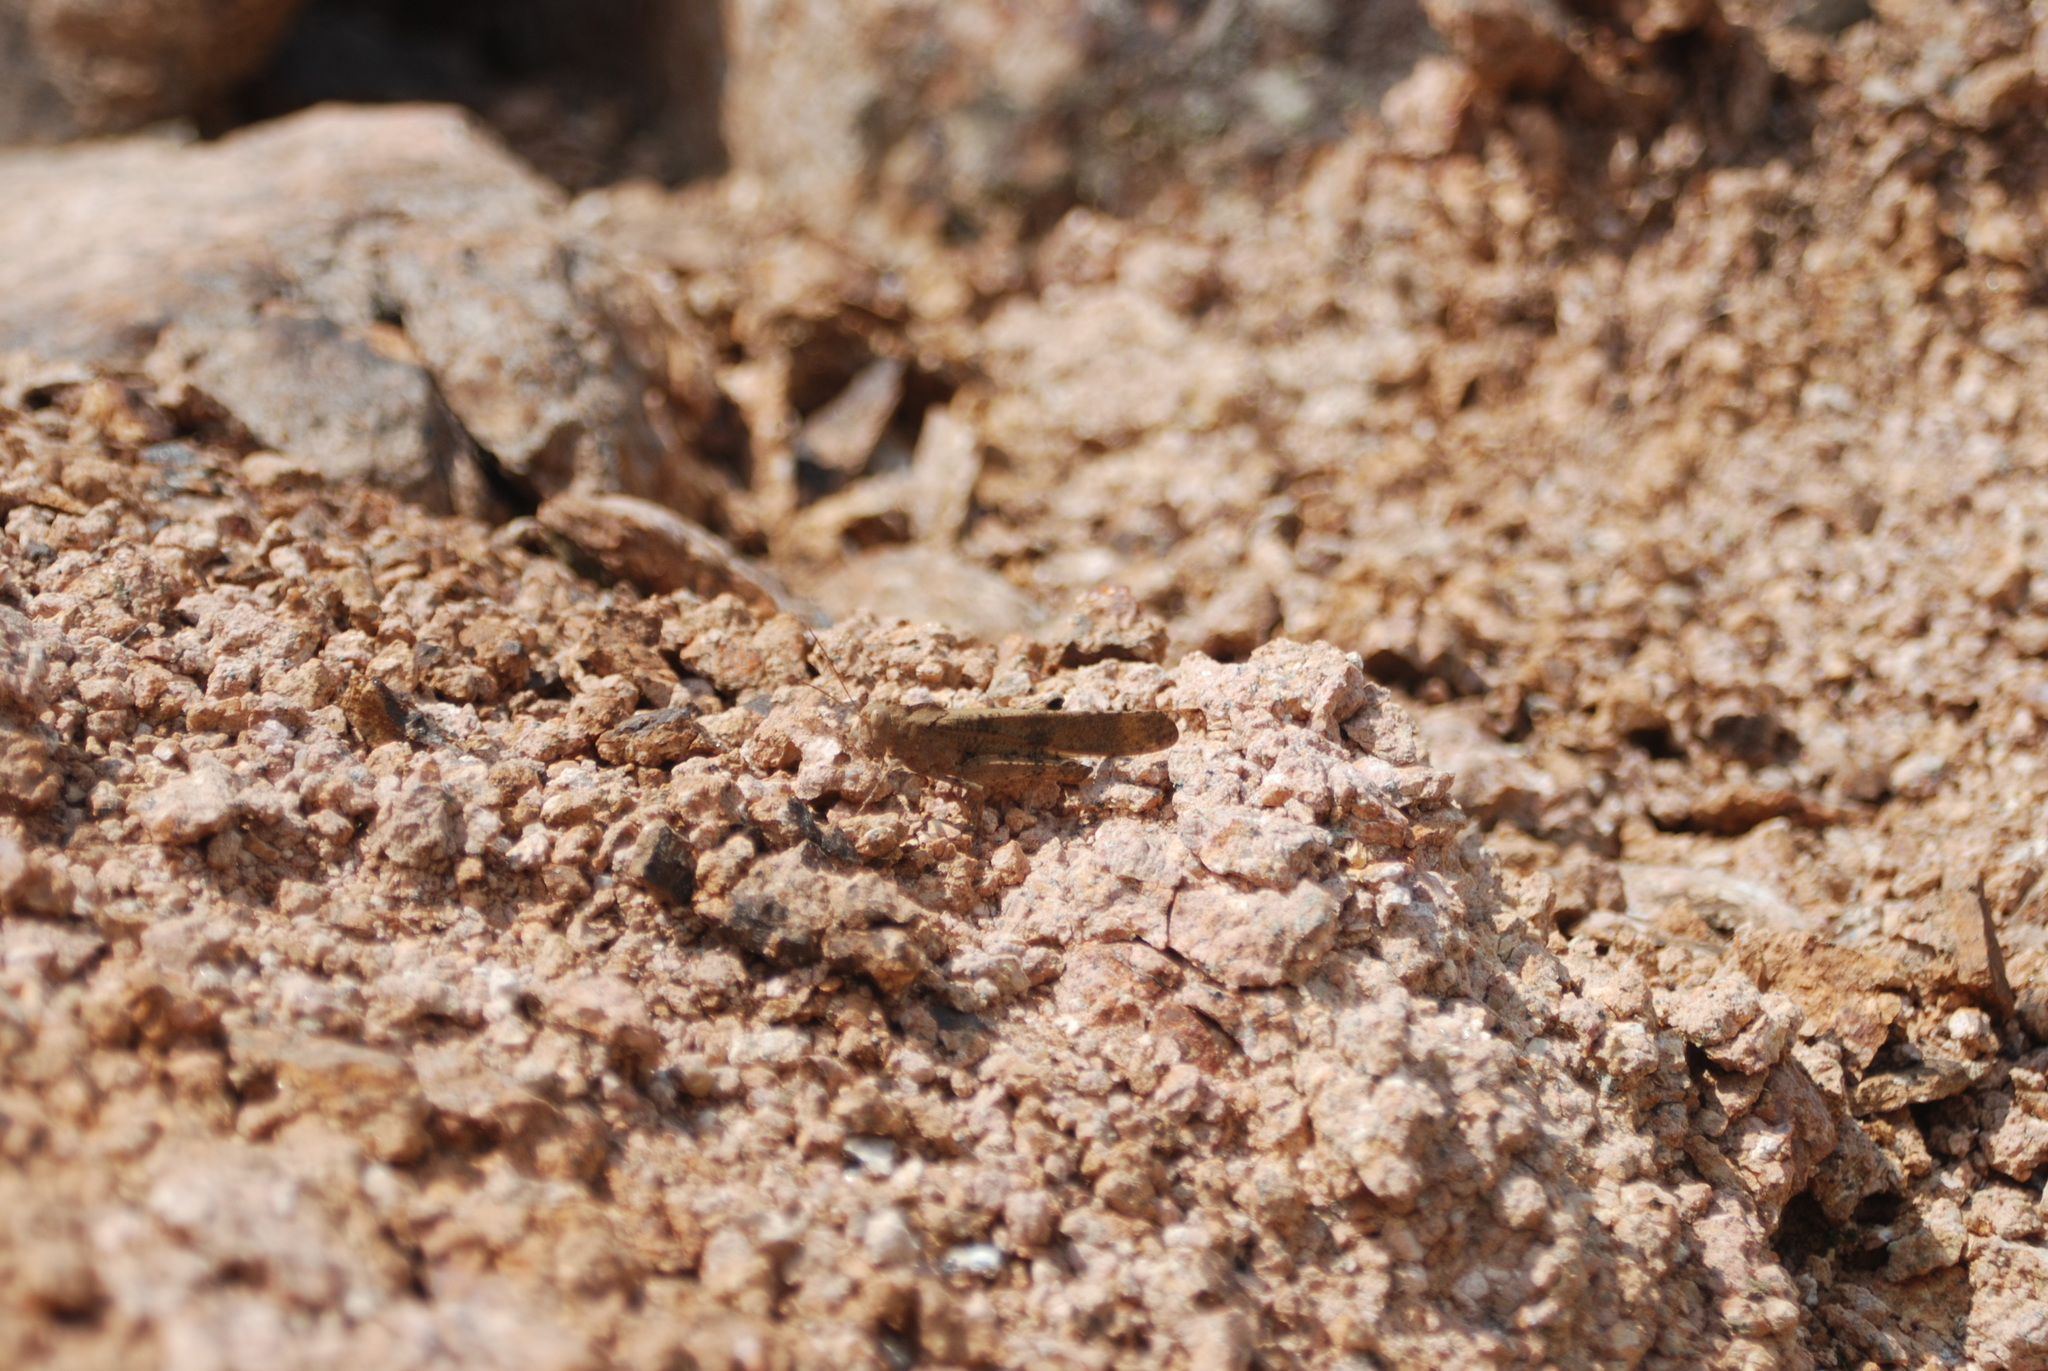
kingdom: Animalia
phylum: Arthropoda
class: Insecta
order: Orthoptera
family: Acrididae
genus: Dissosteira
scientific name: Dissosteira carolina
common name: Carolina grasshopper
